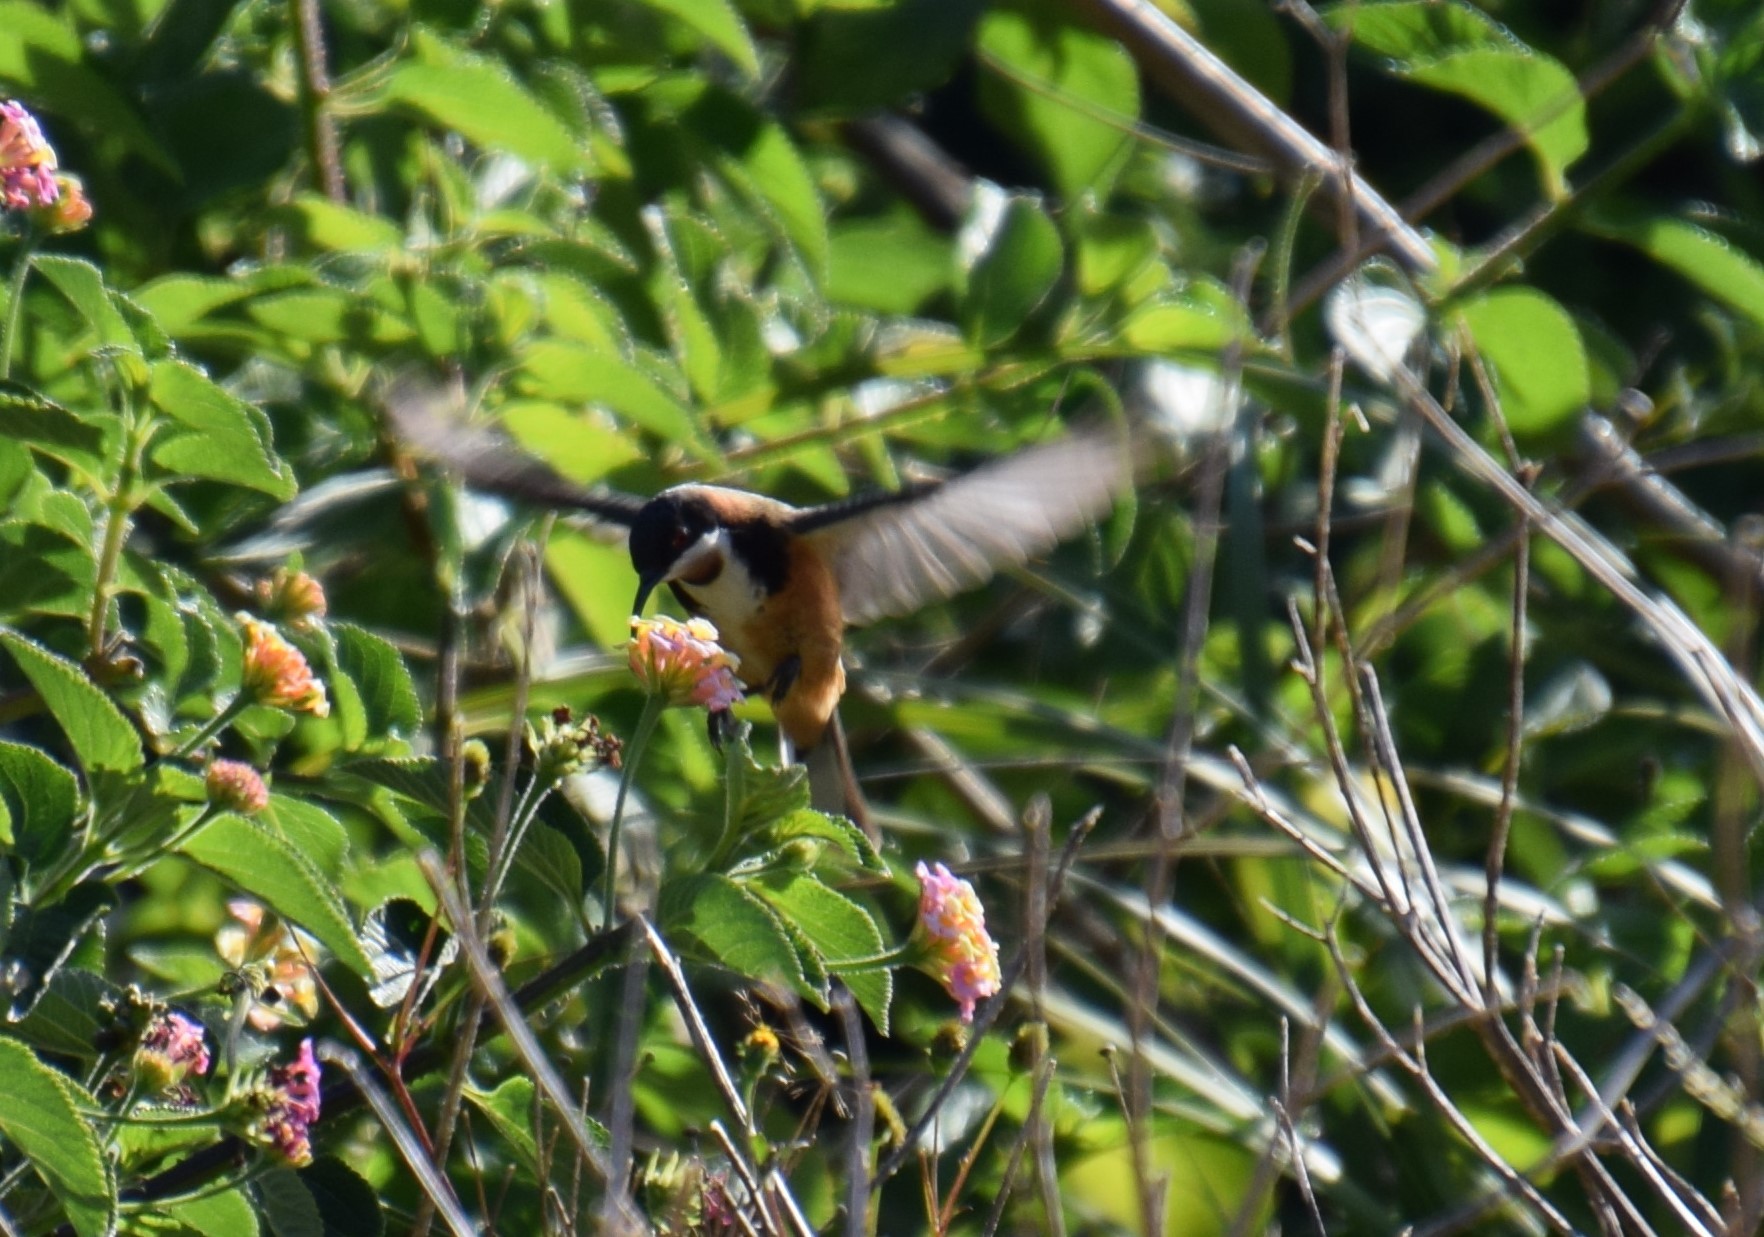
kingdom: Animalia
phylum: Chordata
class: Aves
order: Passeriformes
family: Meliphagidae
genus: Acanthorhynchus
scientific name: Acanthorhynchus tenuirostris
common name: Eastern spinebill
